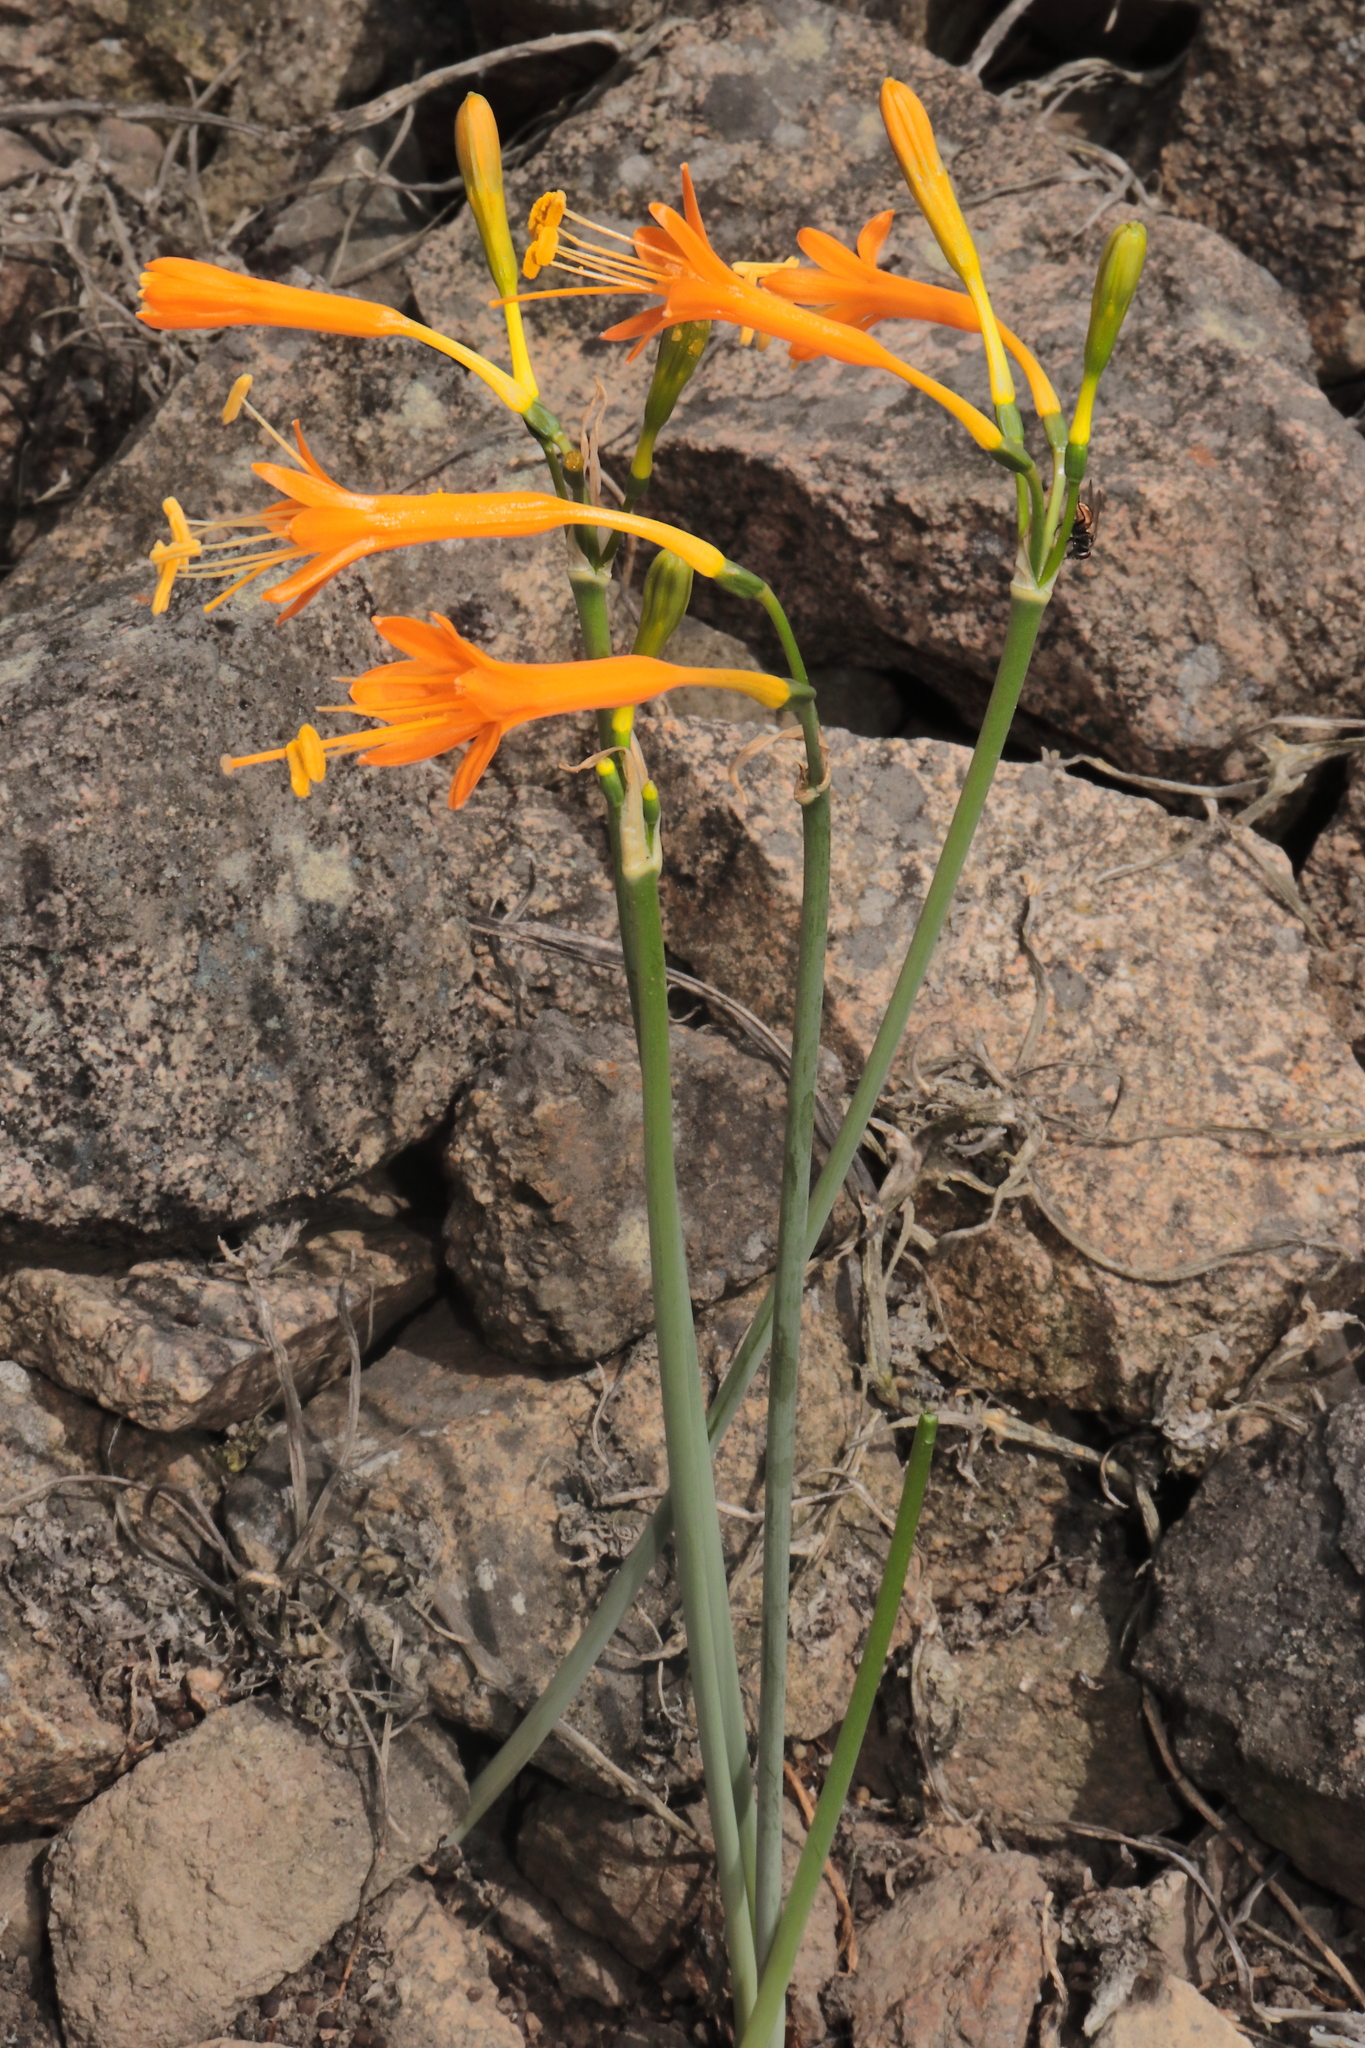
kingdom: Plantae
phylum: Tracheophyta
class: Liliopsida
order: Asparagales
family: Amaryllidaceae
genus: Stenomesson
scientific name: Stenomesson flavum
